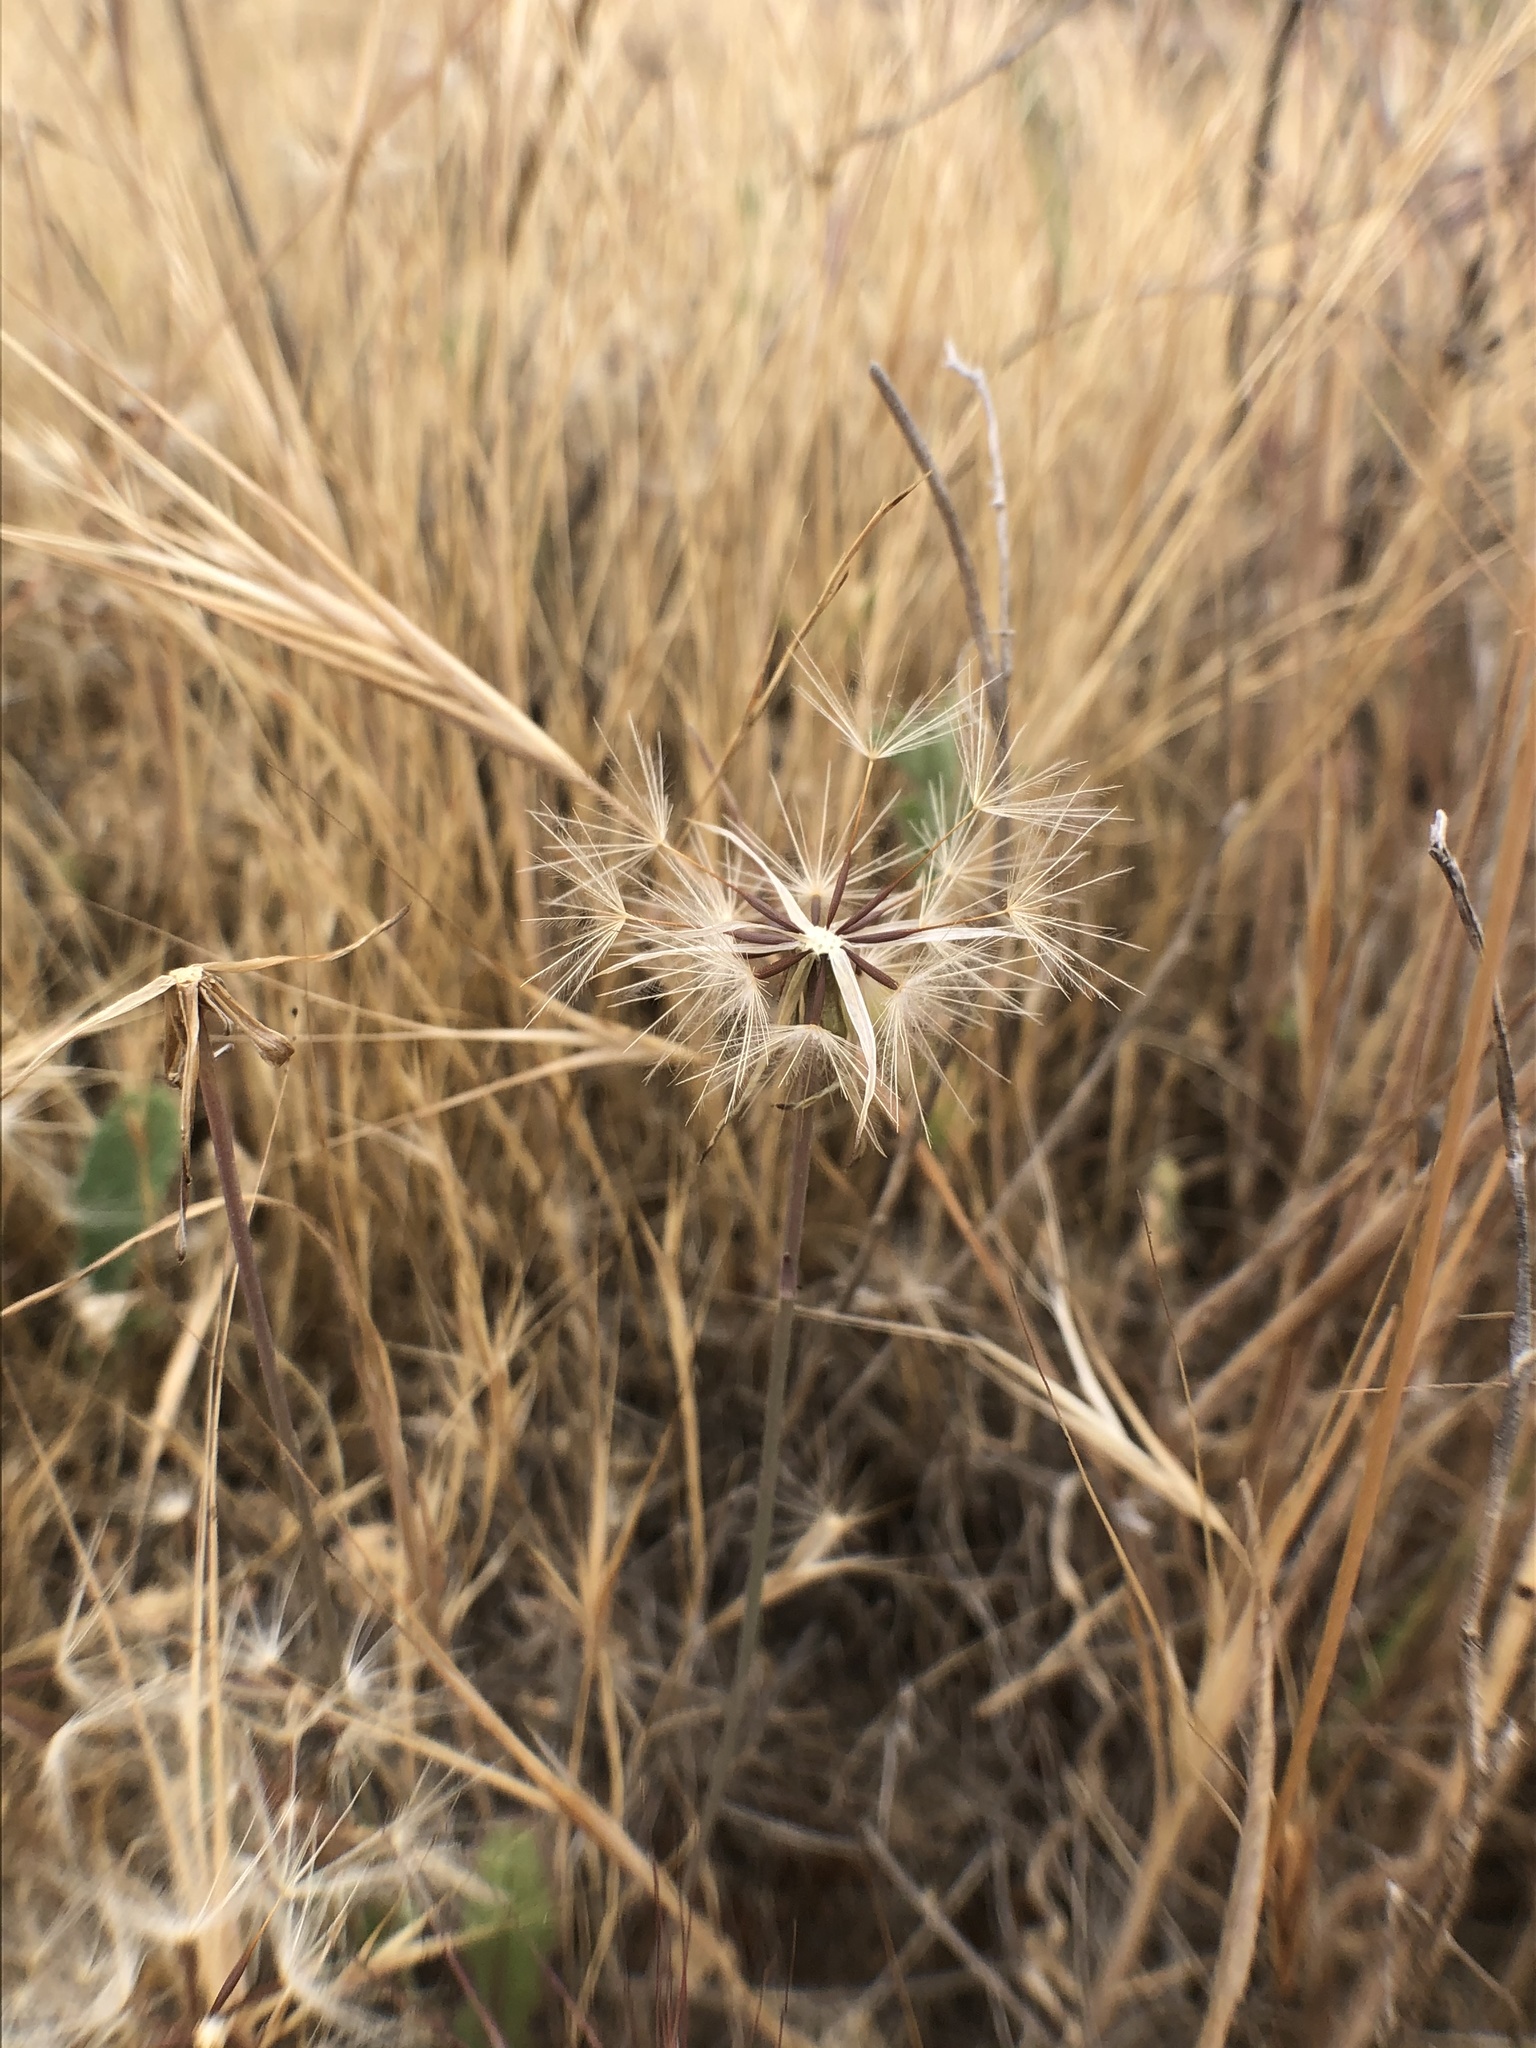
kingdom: Plantae
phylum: Tracheophyta
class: Magnoliopsida
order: Asterales
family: Asteraceae
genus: Hypochaeris
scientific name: Hypochaeris glabra
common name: Smooth catsear
